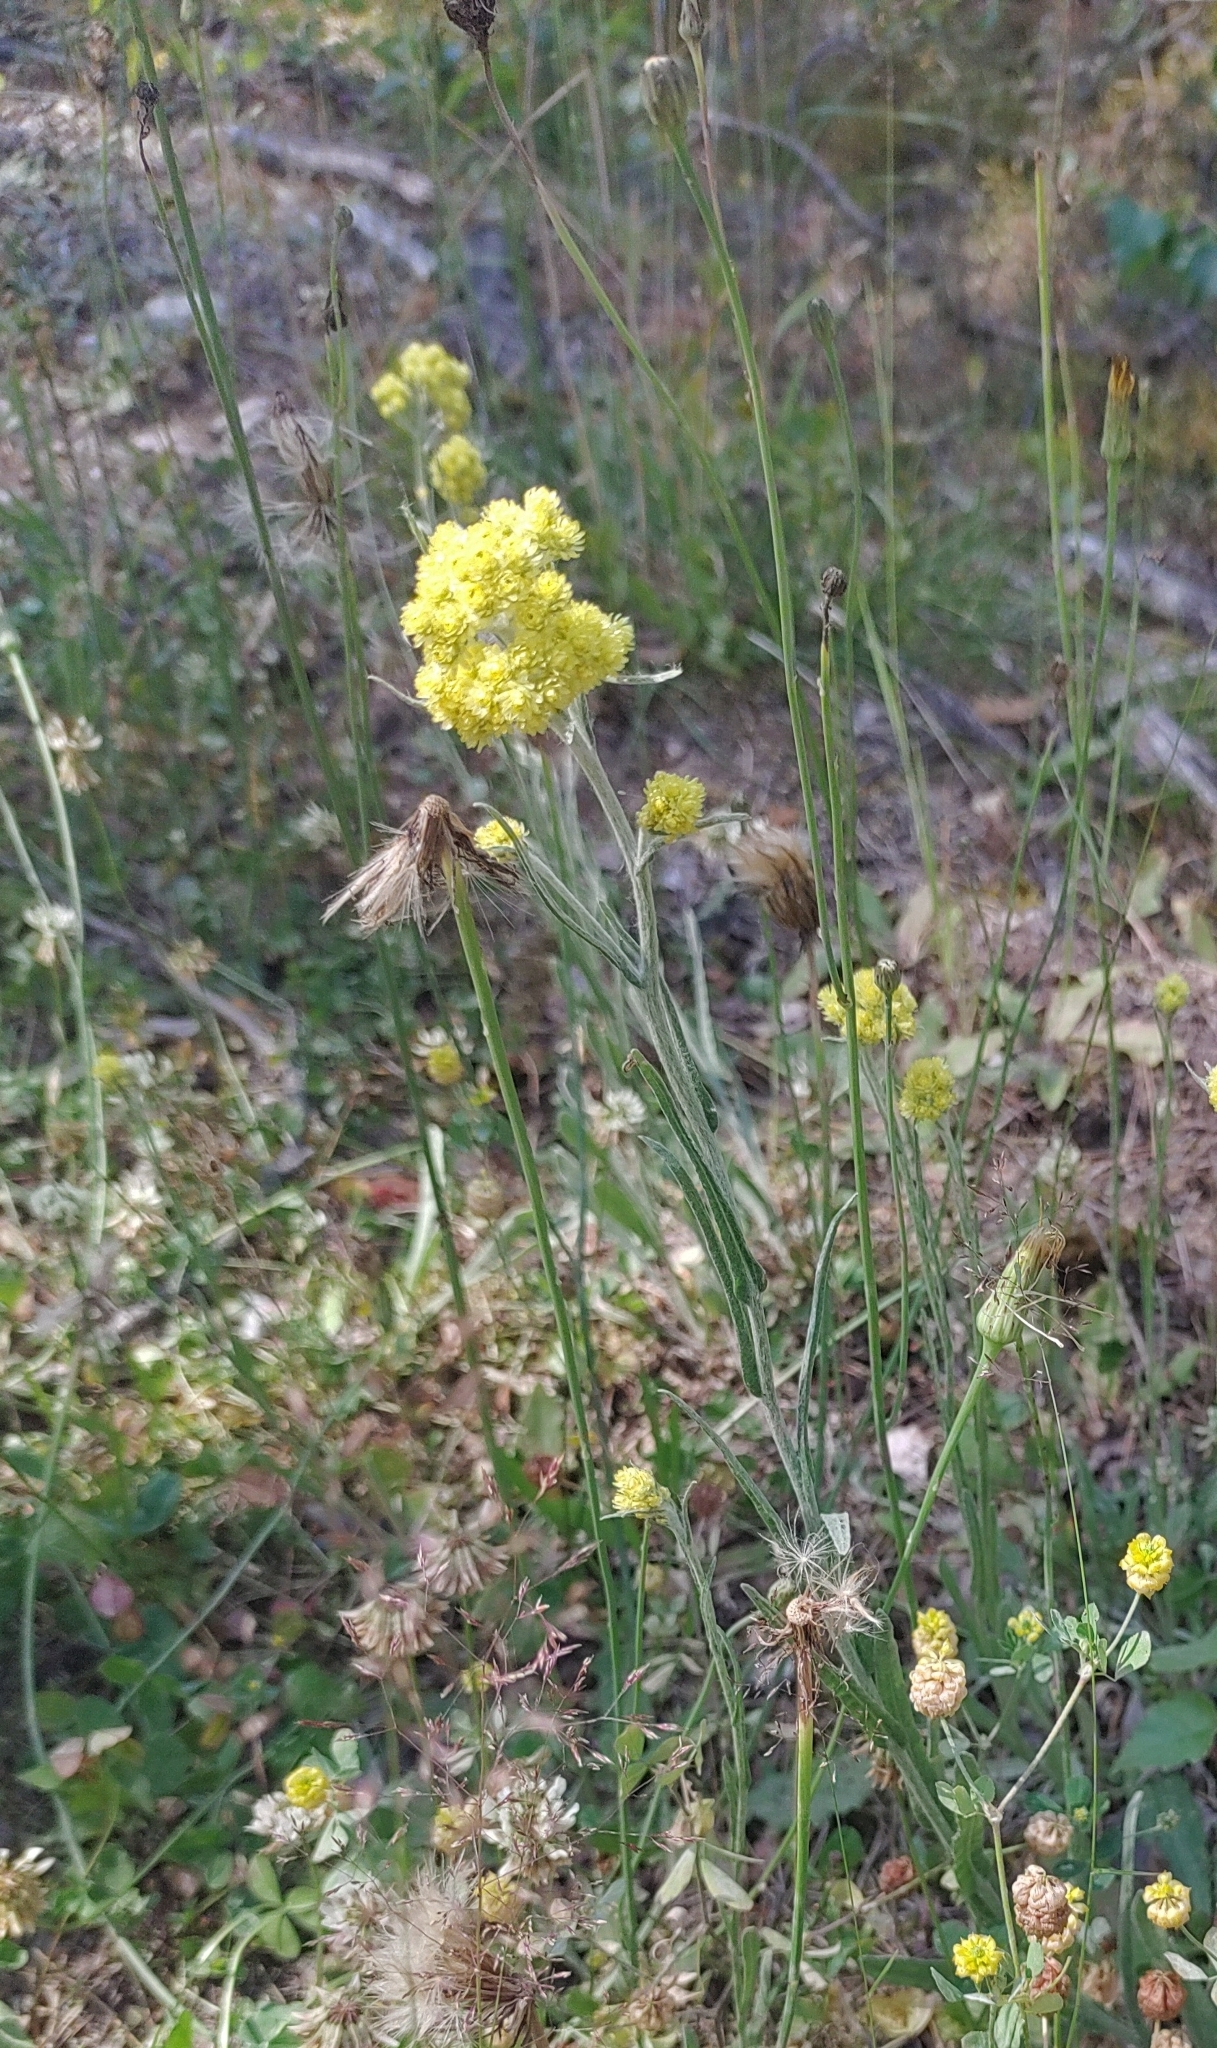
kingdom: Plantae
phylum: Tracheophyta
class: Magnoliopsida
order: Asterales
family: Asteraceae
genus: Helichrysum
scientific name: Helichrysum arenarium
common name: Strawflower
